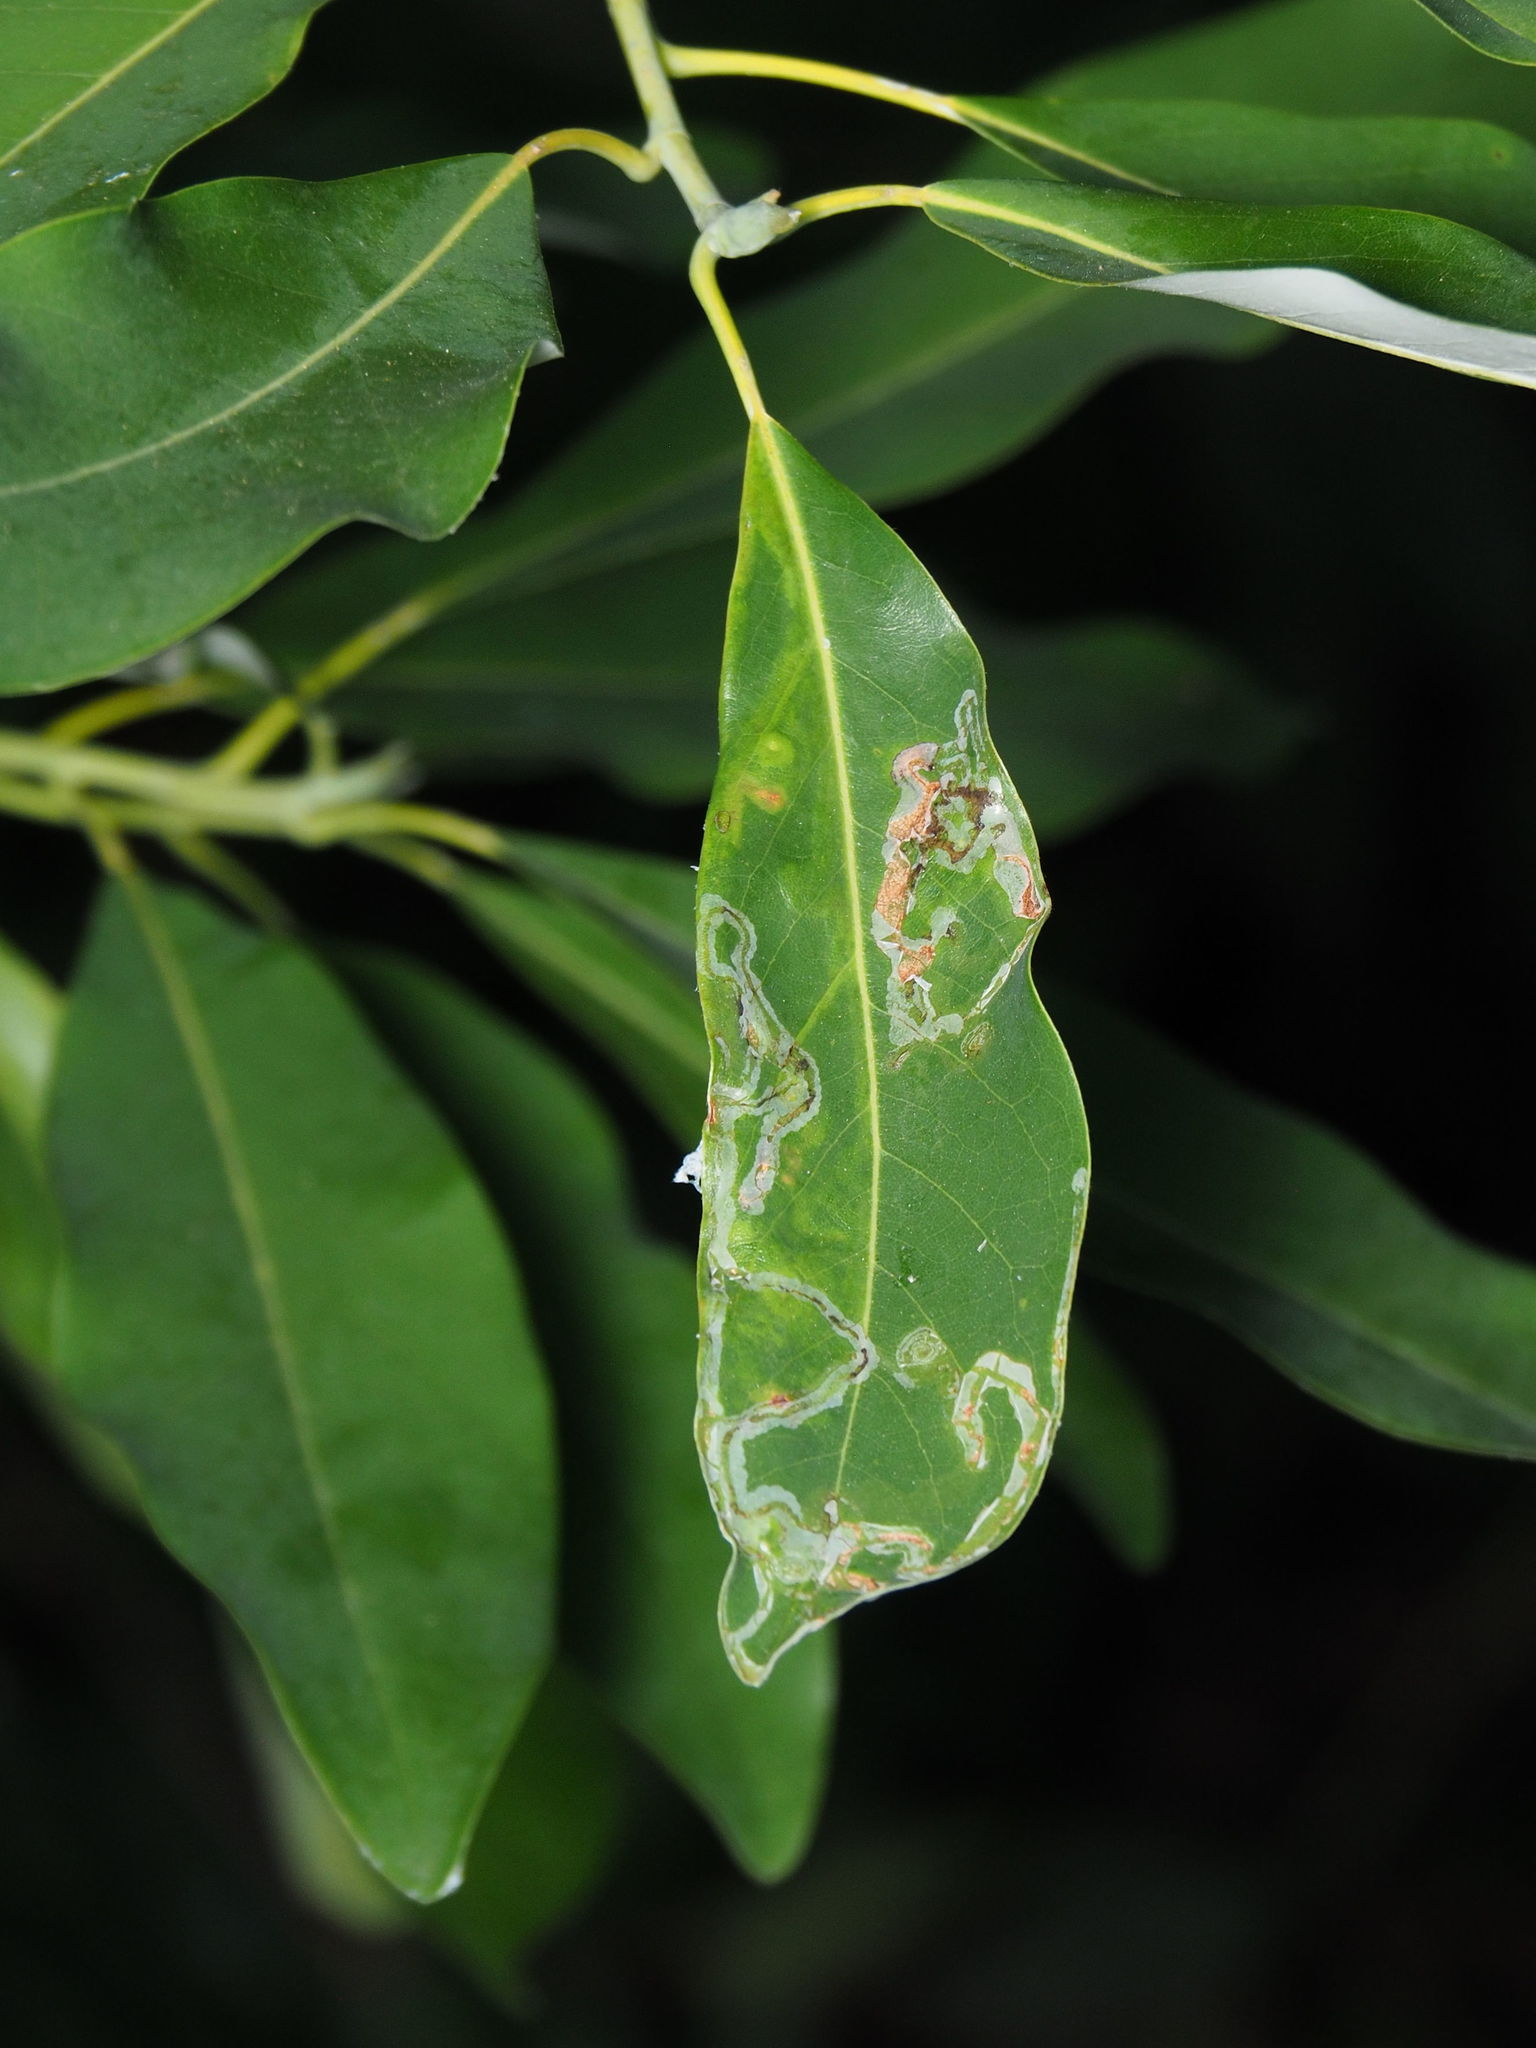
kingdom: Animalia
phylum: Arthropoda
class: Insecta
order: Lepidoptera
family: Gracillariidae
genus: Phyllocnistis
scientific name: Phyllocnistis liriodendronella
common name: Tulip tree leaf miner
